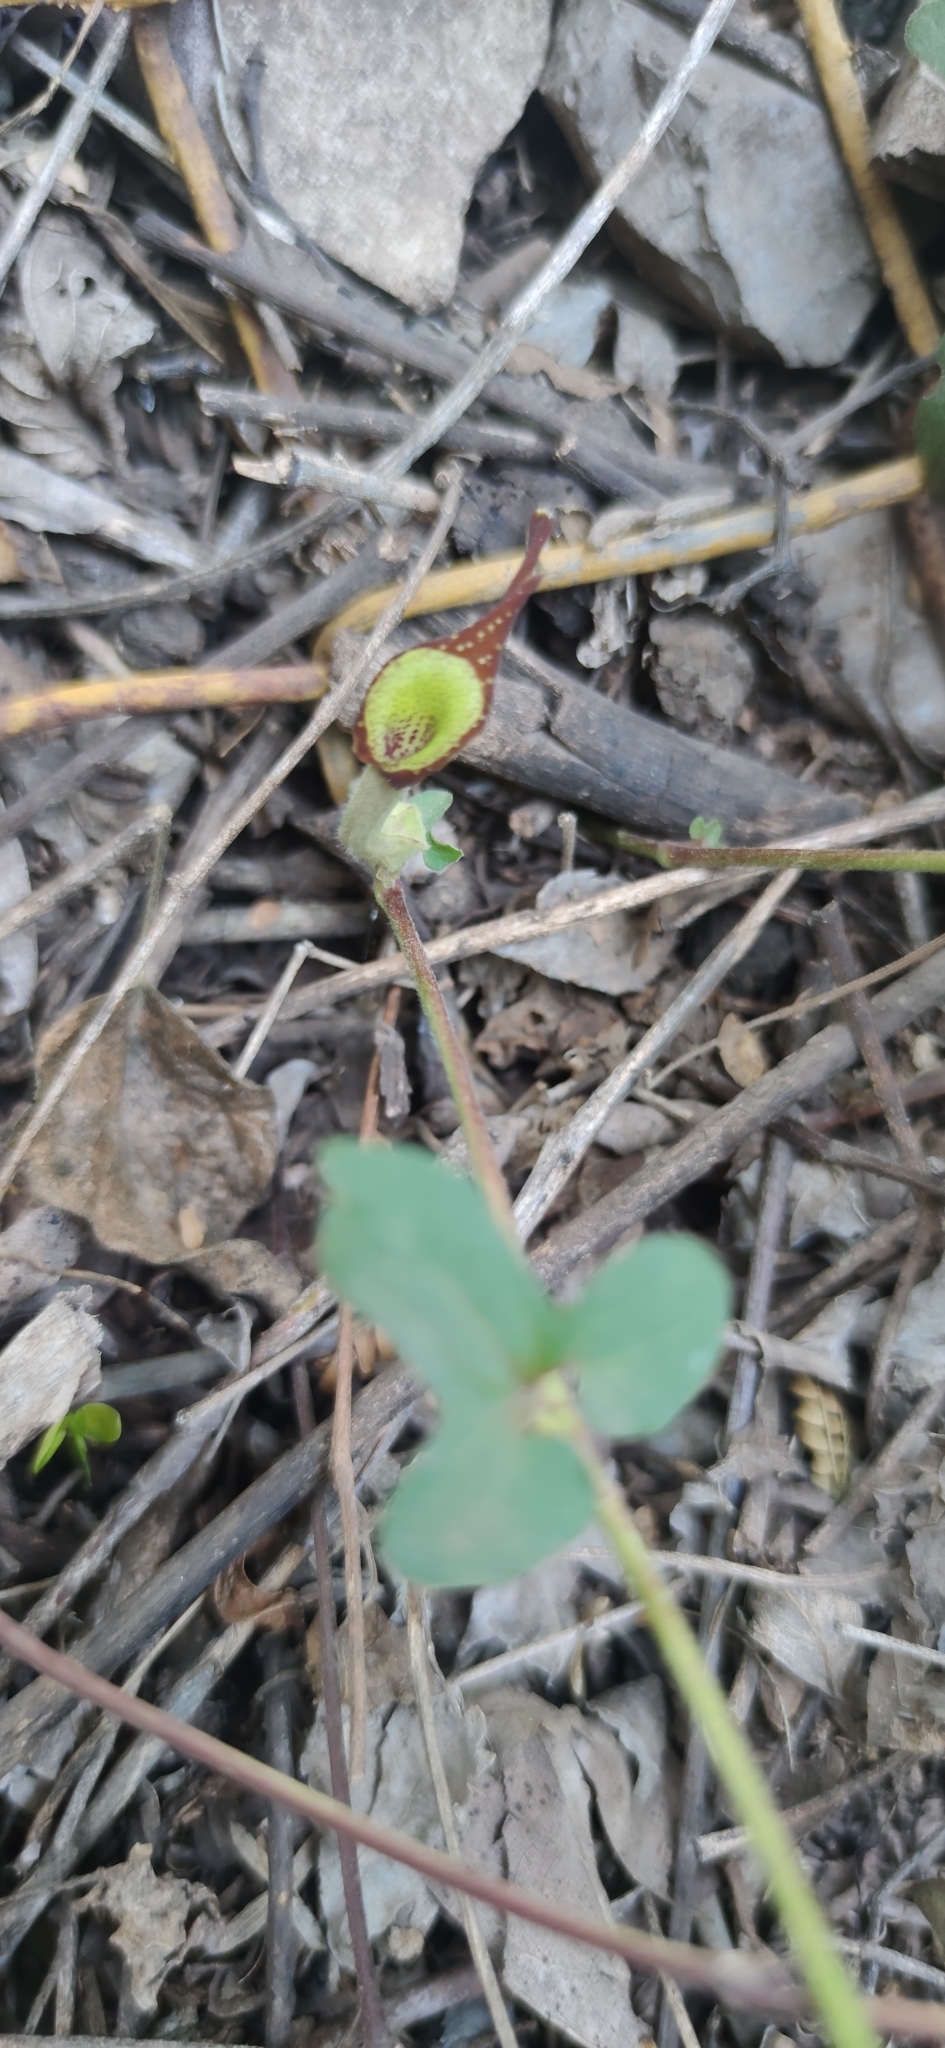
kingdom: Plantae
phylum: Tracheophyta
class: Magnoliopsida
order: Piperales
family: Aristolochiaceae
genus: Aristolochia
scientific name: Aristolochia pentandra
